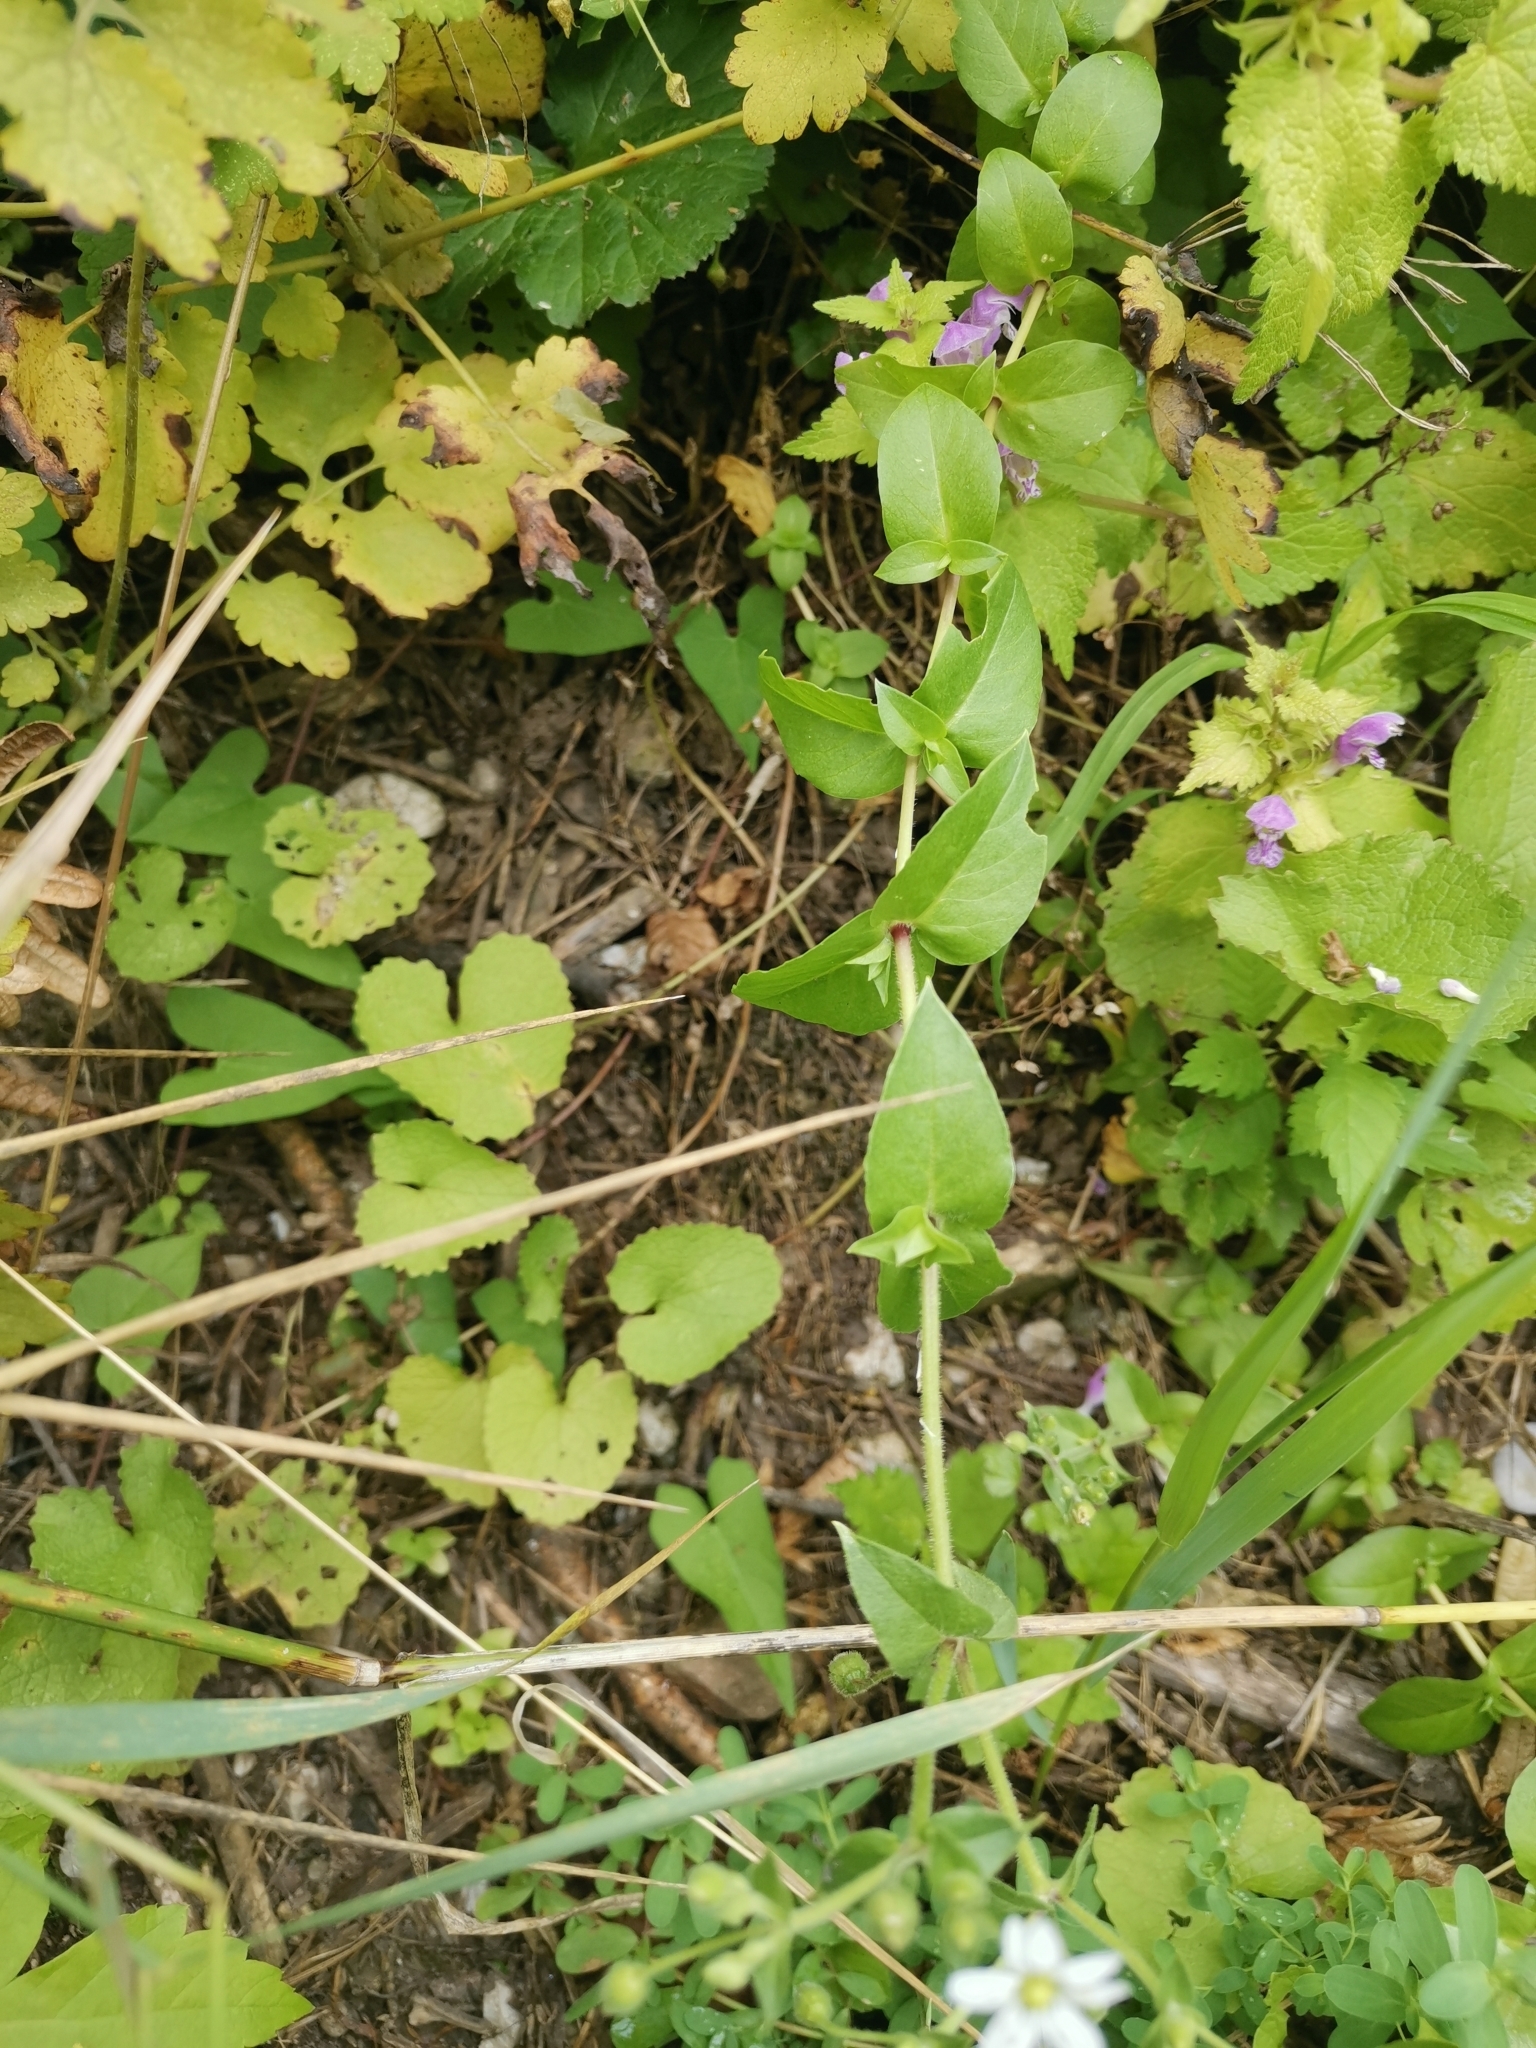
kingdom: Plantae
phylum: Tracheophyta
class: Magnoliopsida
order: Caryophyllales
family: Caryophyllaceae
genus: Stellaria
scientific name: Stellaria aquatica
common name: Water chickweed
